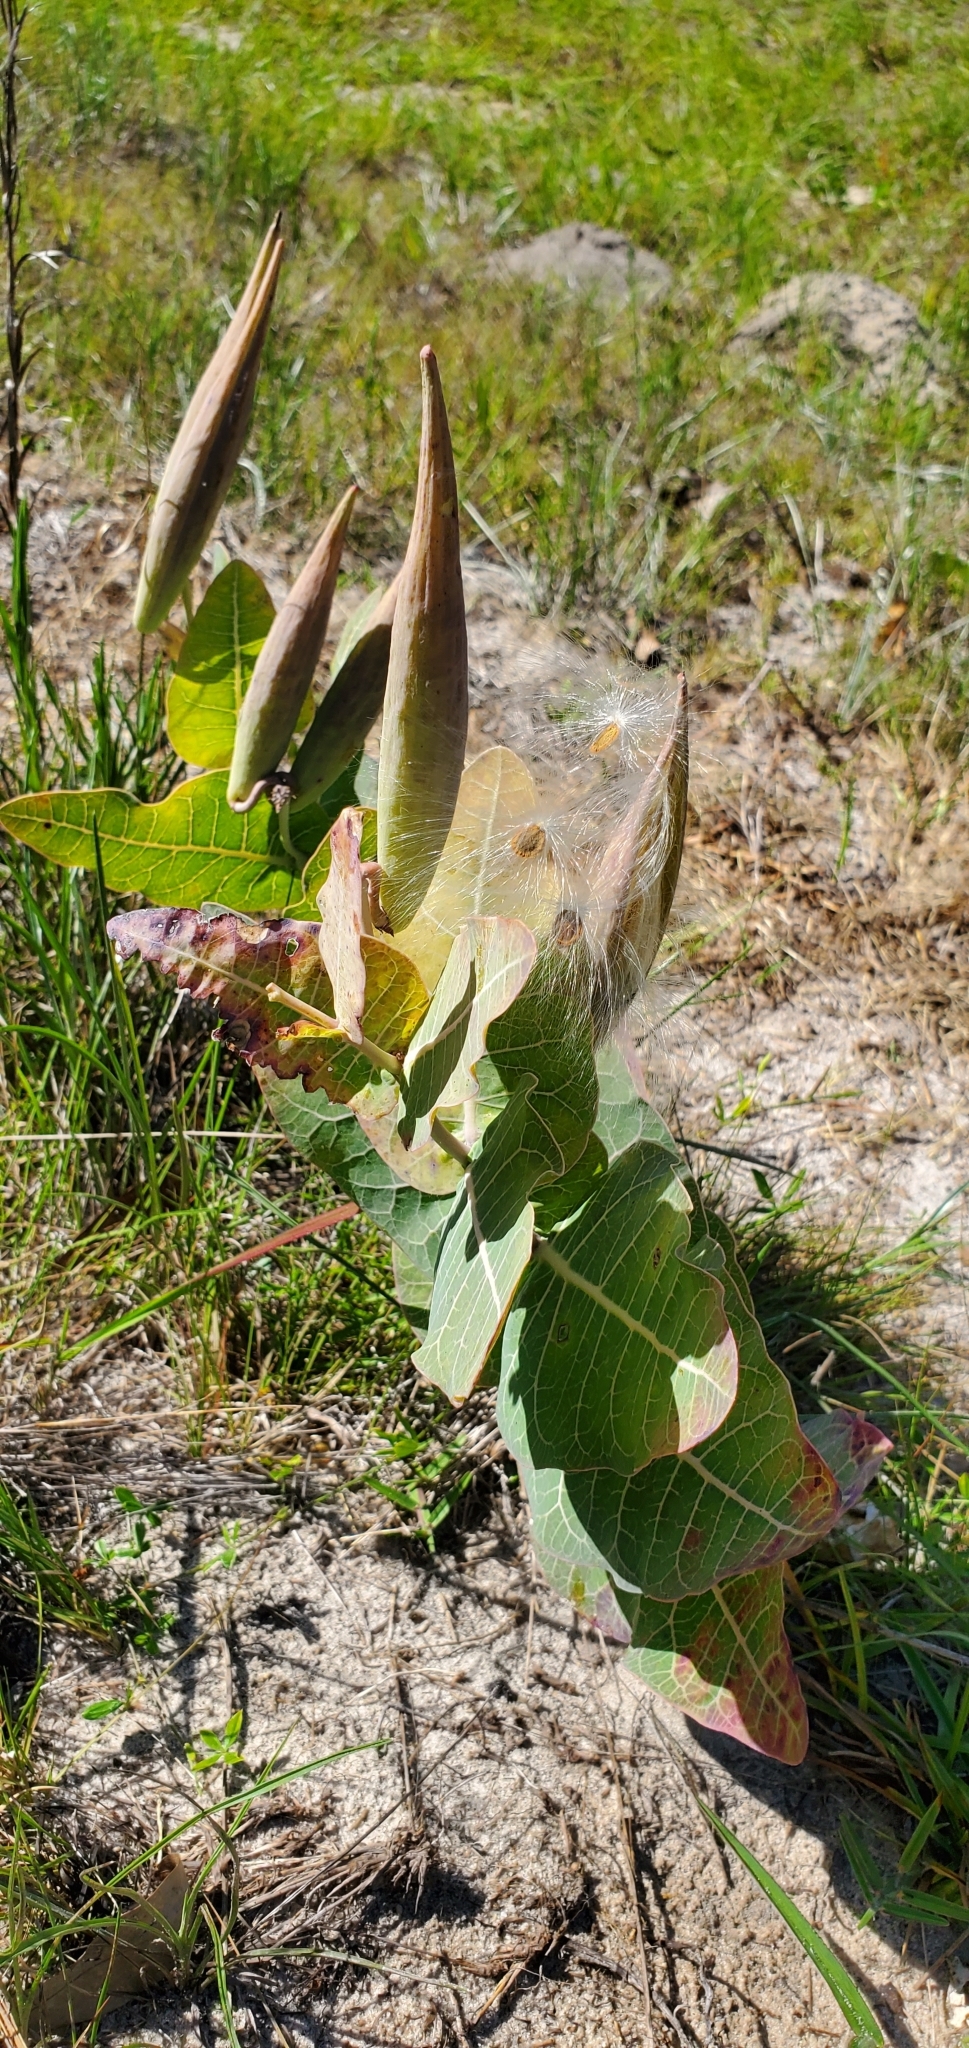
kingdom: Plantae
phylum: Tracheophyta
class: Magnoliopsida
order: Gentianales
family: Apocynaceae
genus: Asclepias
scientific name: Asclepias humistrata
